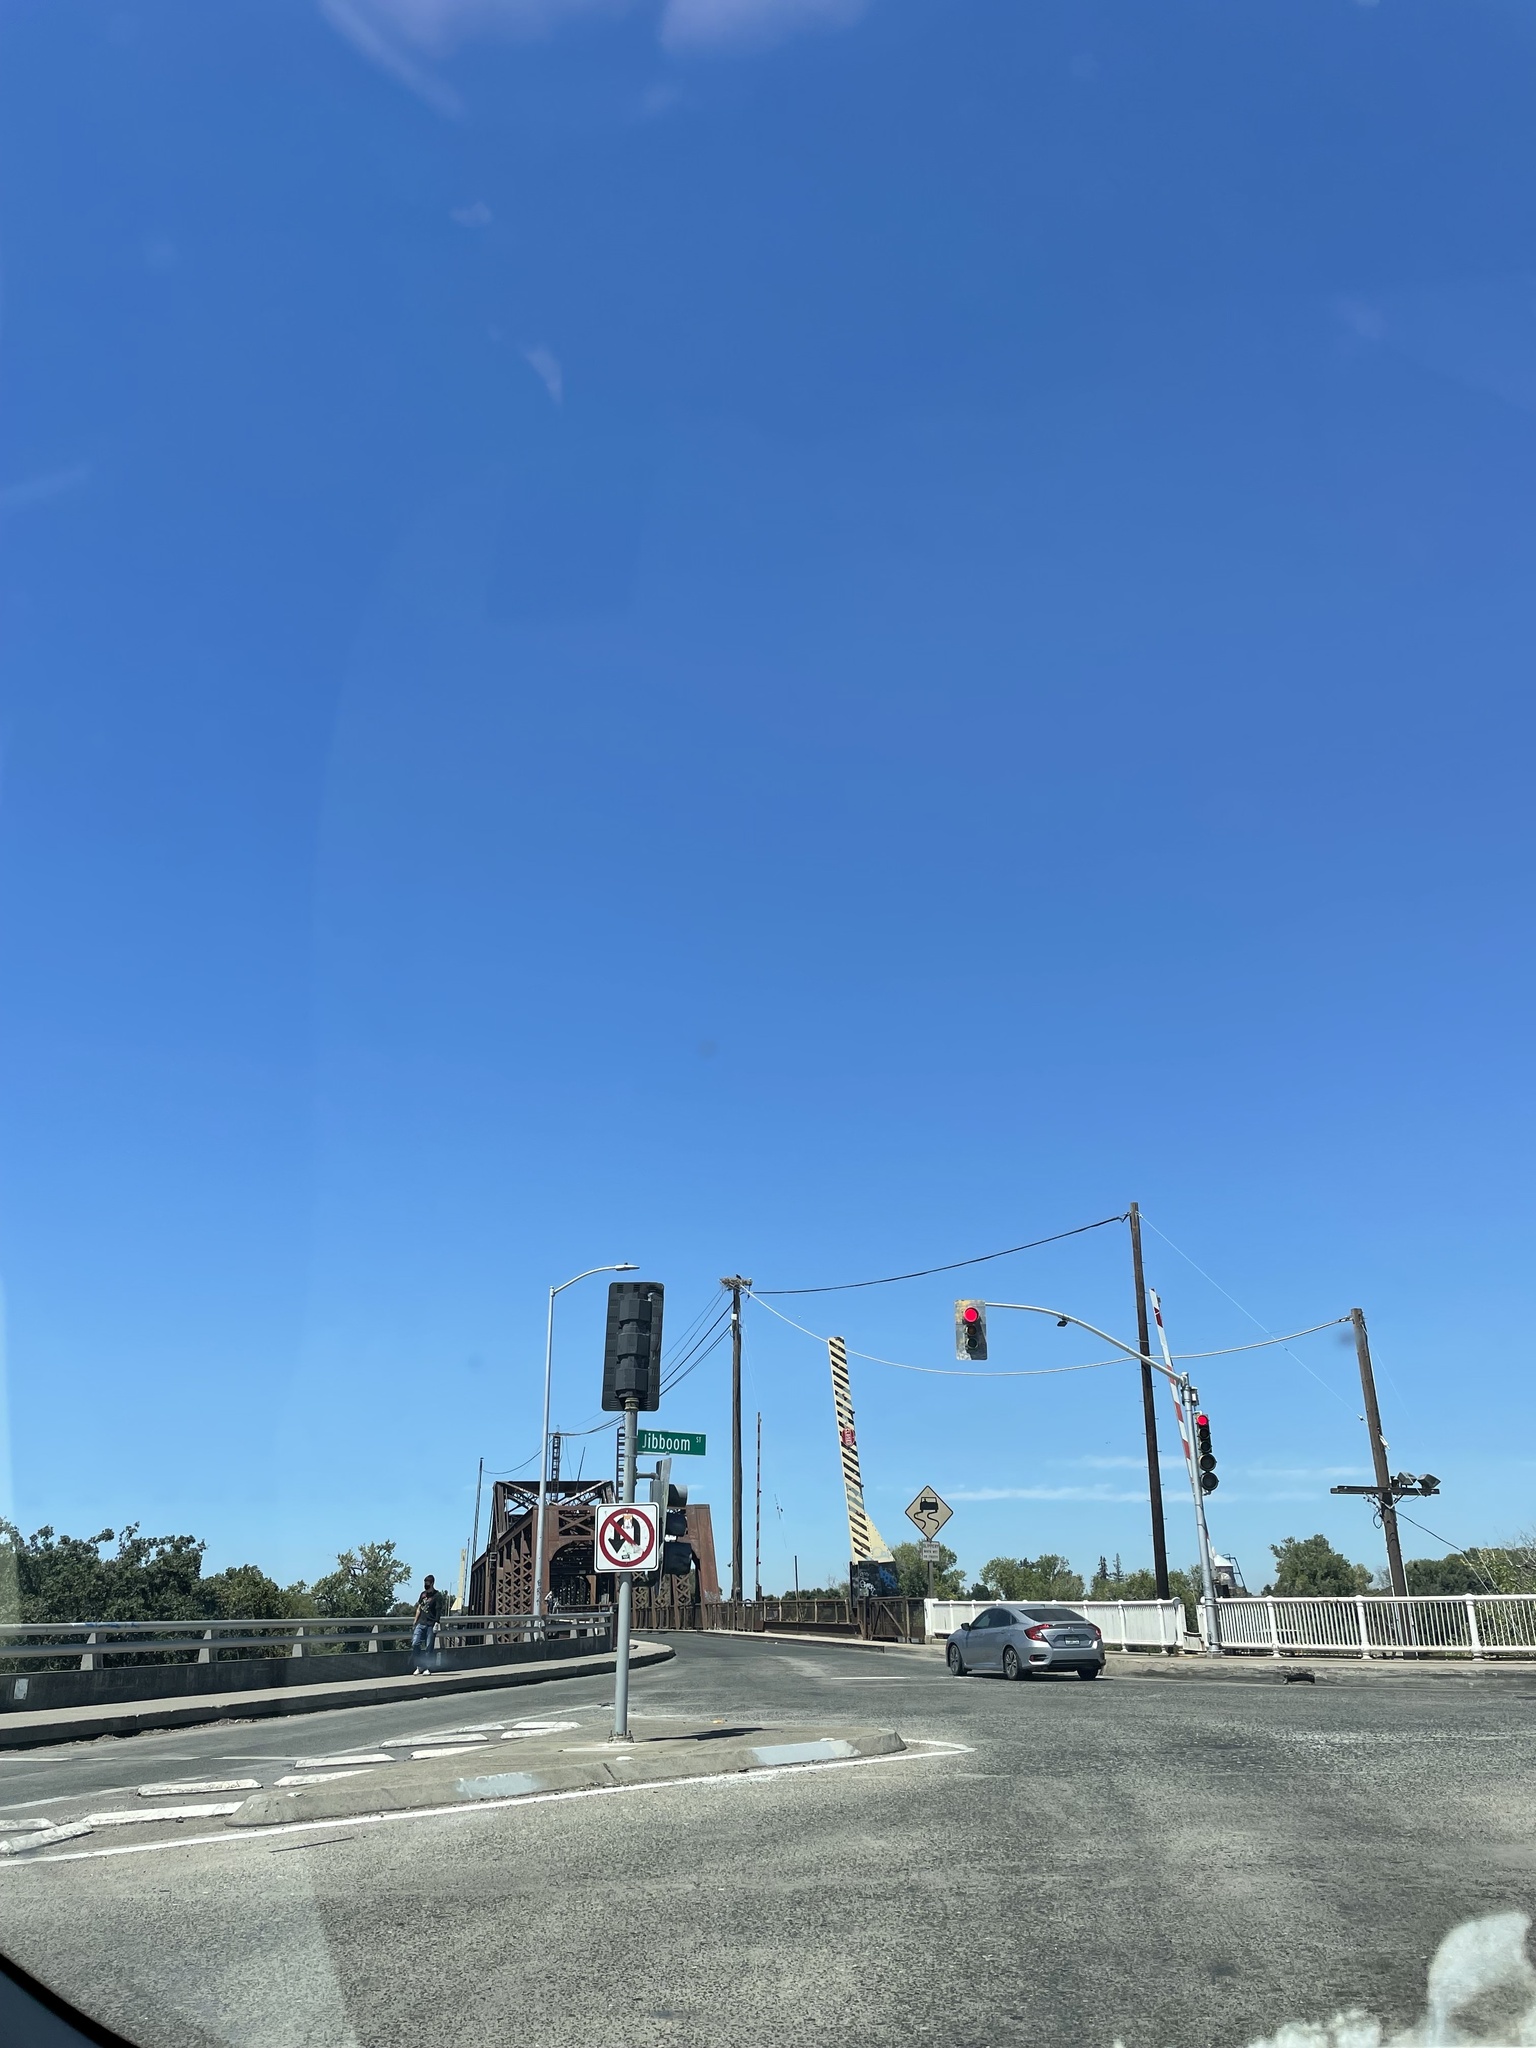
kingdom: Animalia
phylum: Chordata
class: Aves
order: Accipitriformes
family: Pandionidae
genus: Pandion
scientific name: Pandion haliaetus
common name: Osprey
